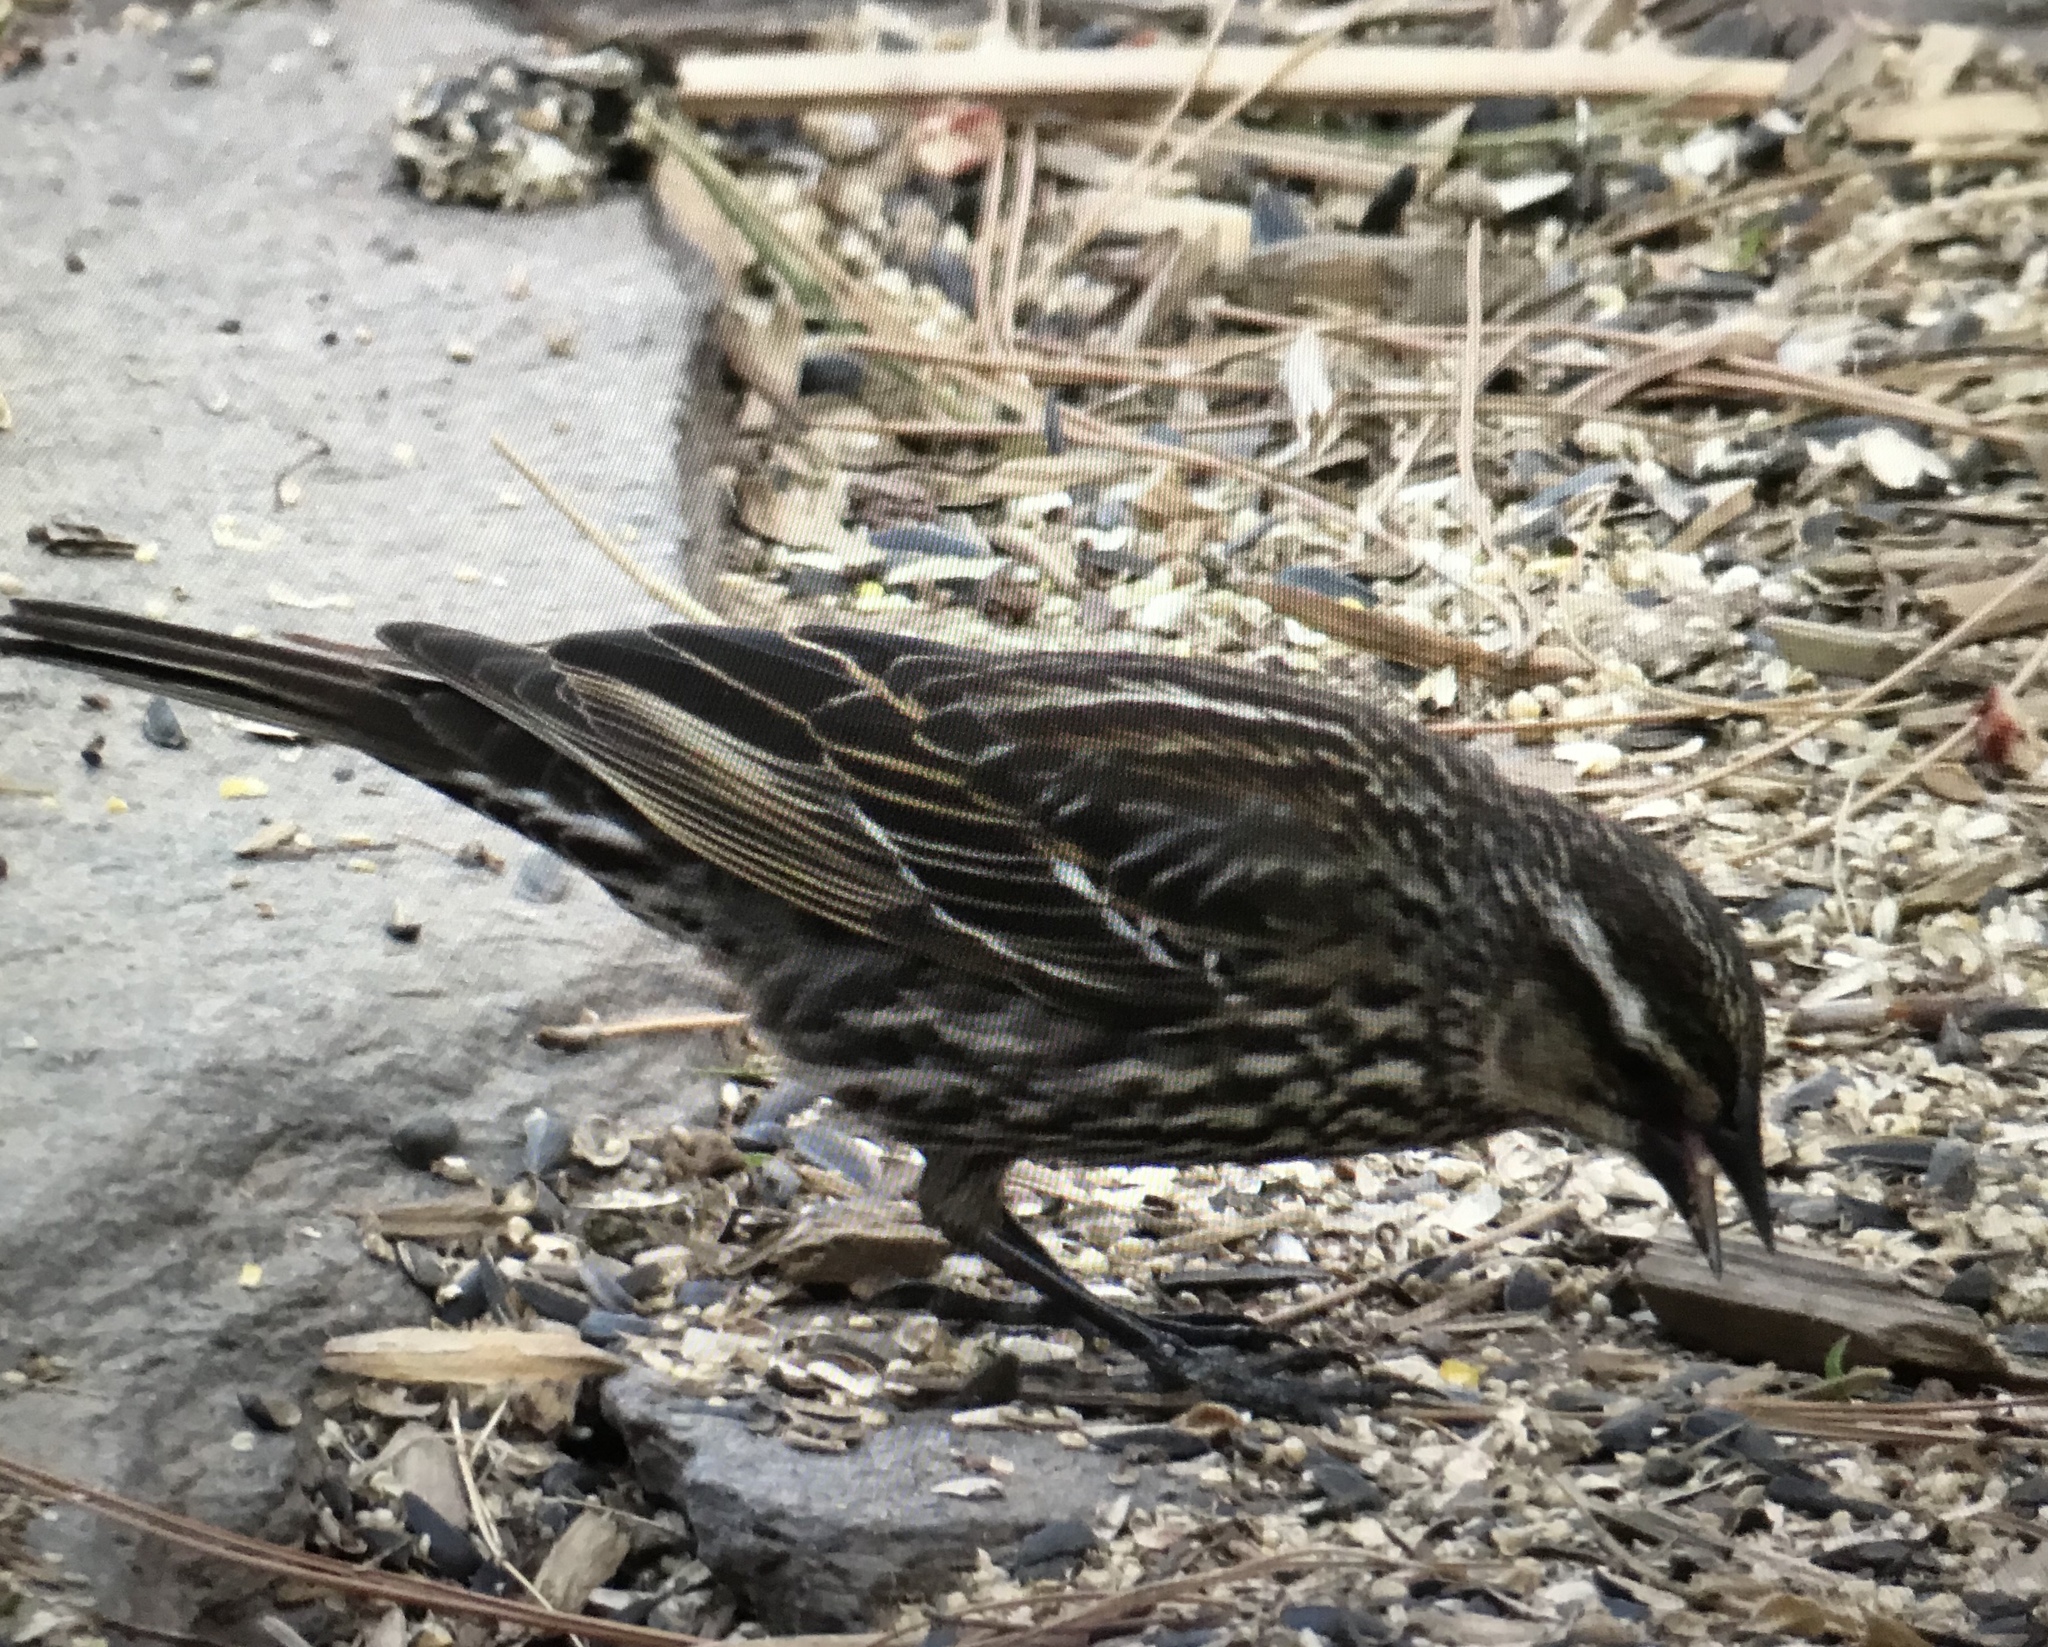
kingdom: Animalia
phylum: Chordata
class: Aves
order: Passeriformes
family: Icteridae
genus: Agelaius
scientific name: Agelaius phoeniceus
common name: Red-winged blackbird
